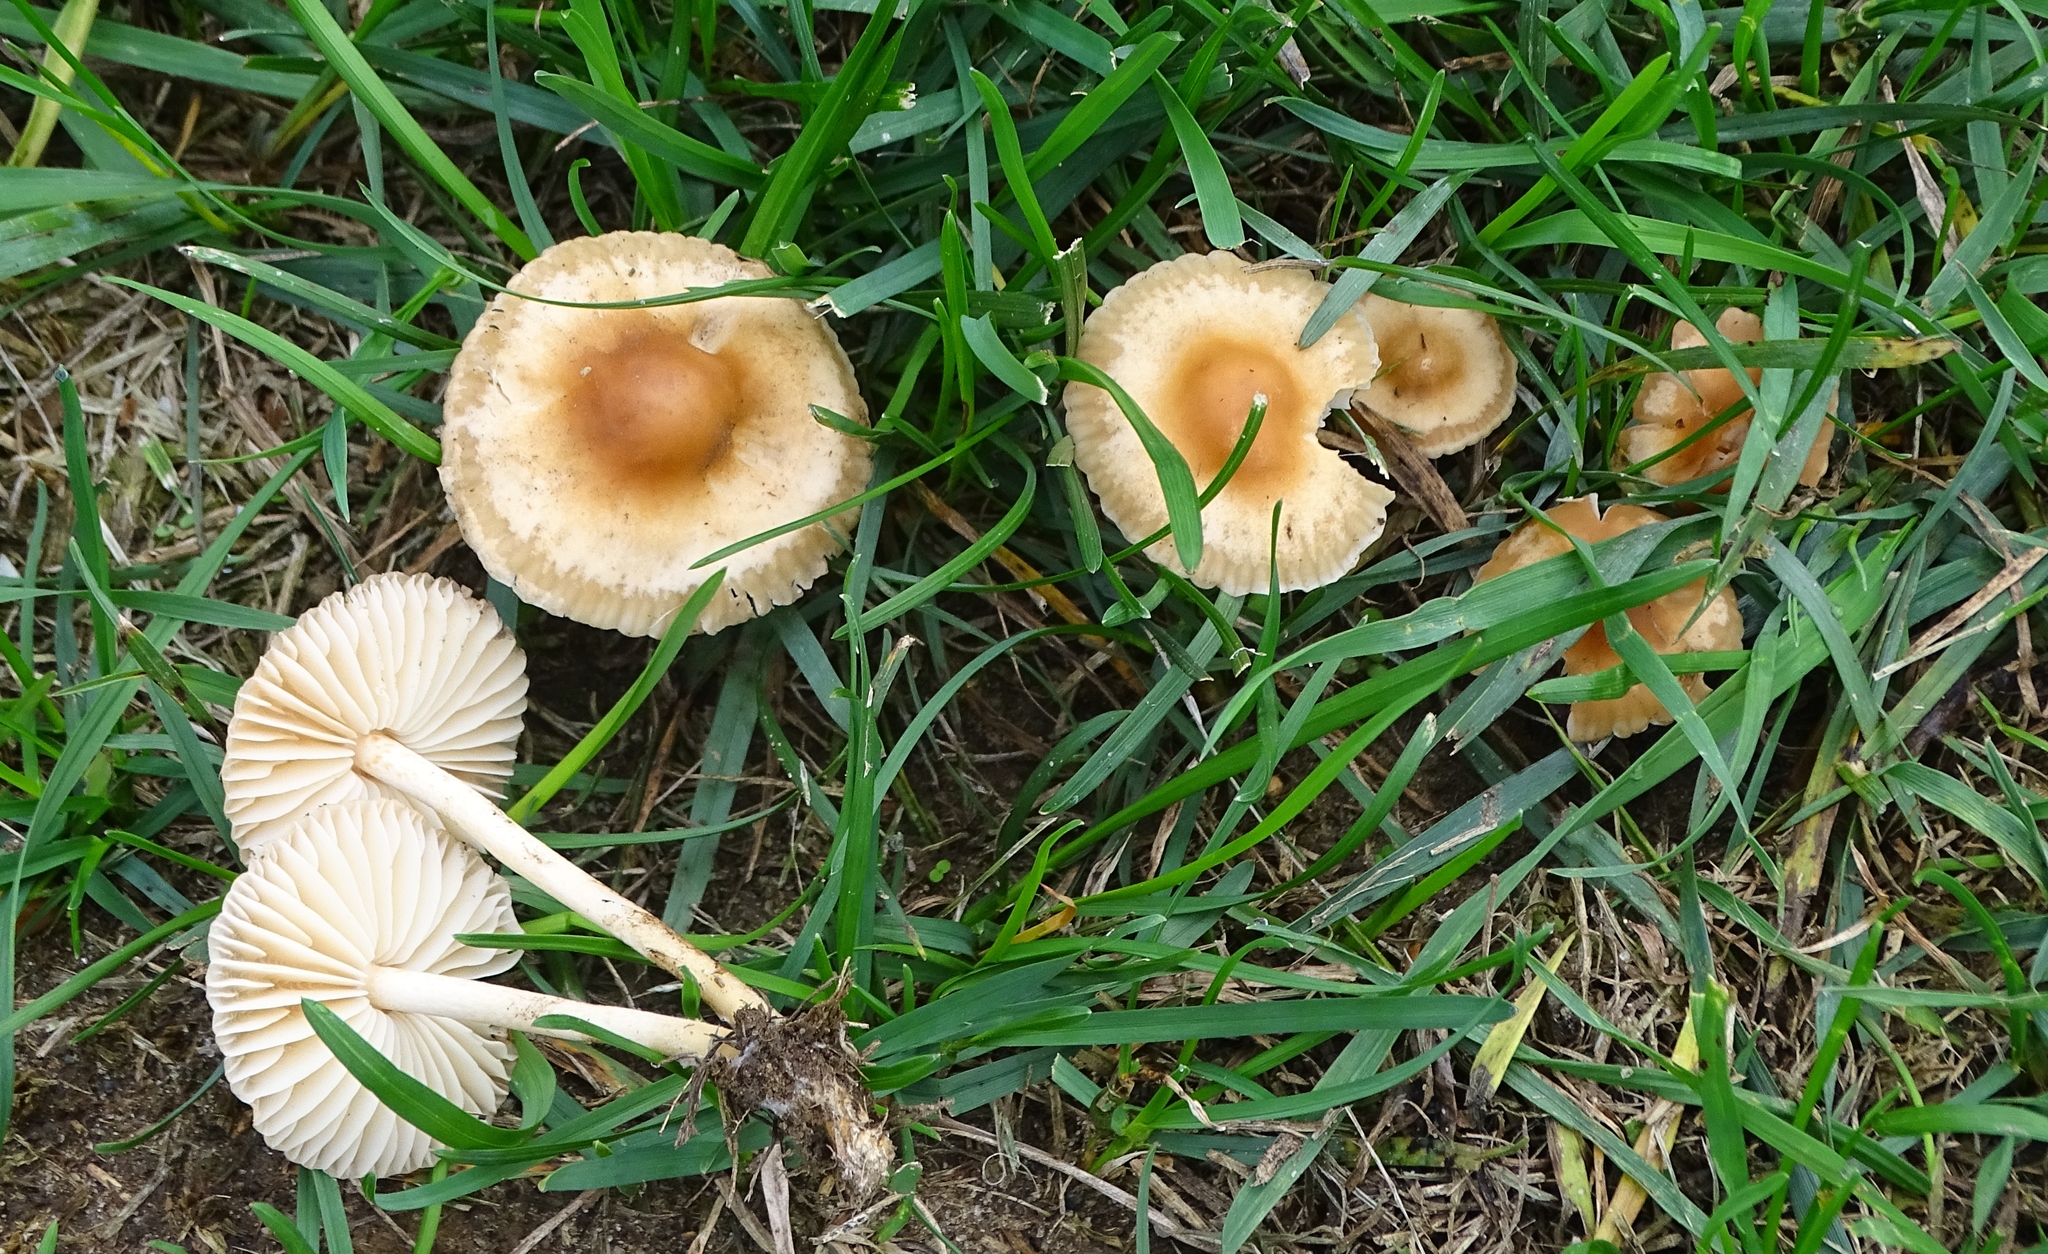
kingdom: Fungi
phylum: Basidiomycota
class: Agaricomycetes
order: Agaricales
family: Marasmiaceae
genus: Marasmius
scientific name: Marasmius oreades
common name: Fairy ring champignon
